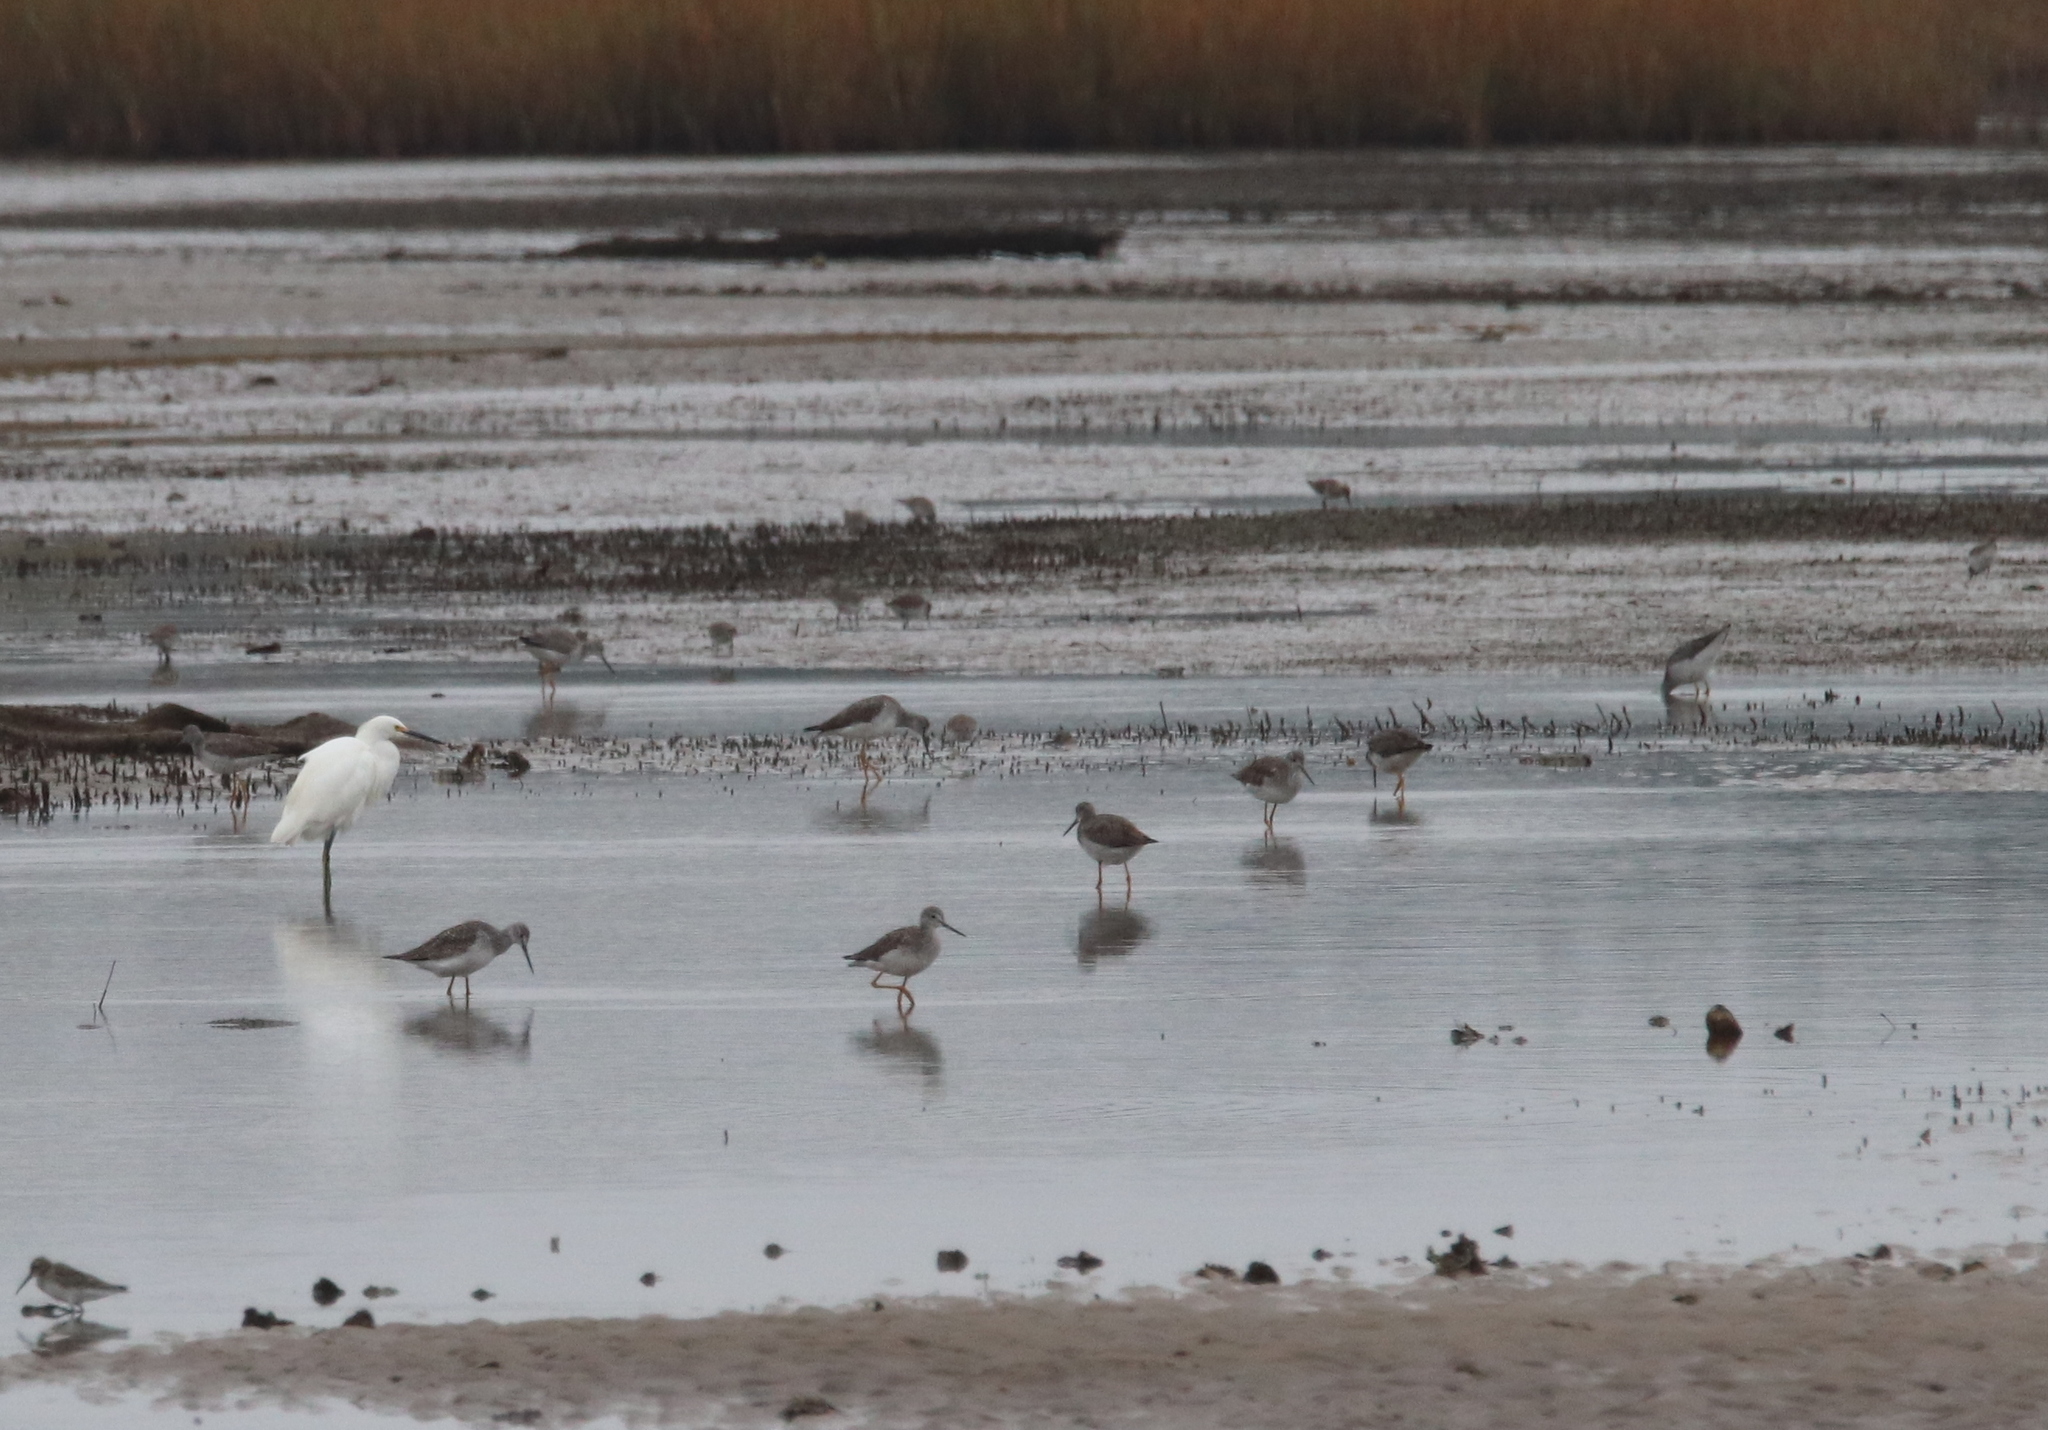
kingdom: Animalia
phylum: Chordata
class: Aves
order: Charadriiformes
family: Scolopacidae
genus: Tringa
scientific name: Tringa melanoleuca
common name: Greater yellowlegs
